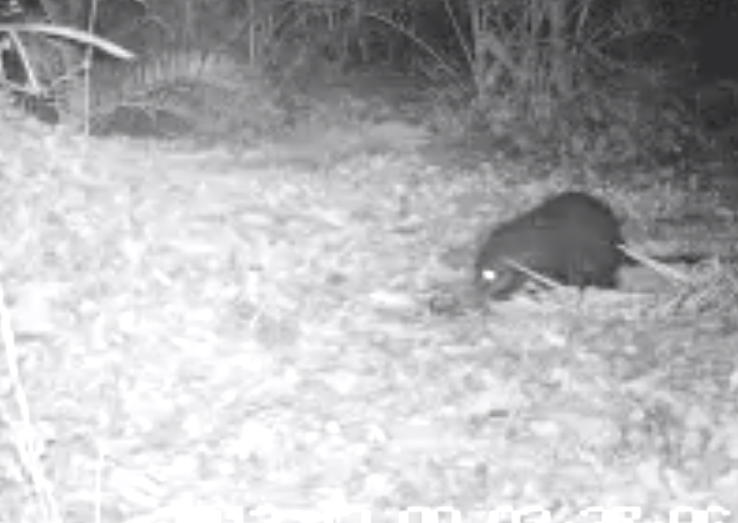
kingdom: Animalia
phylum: Chordata
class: Mammalia
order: Carnivora
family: Herpestidae
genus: Atilax
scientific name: Atilax paludinosus
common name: Marsh mongoose
